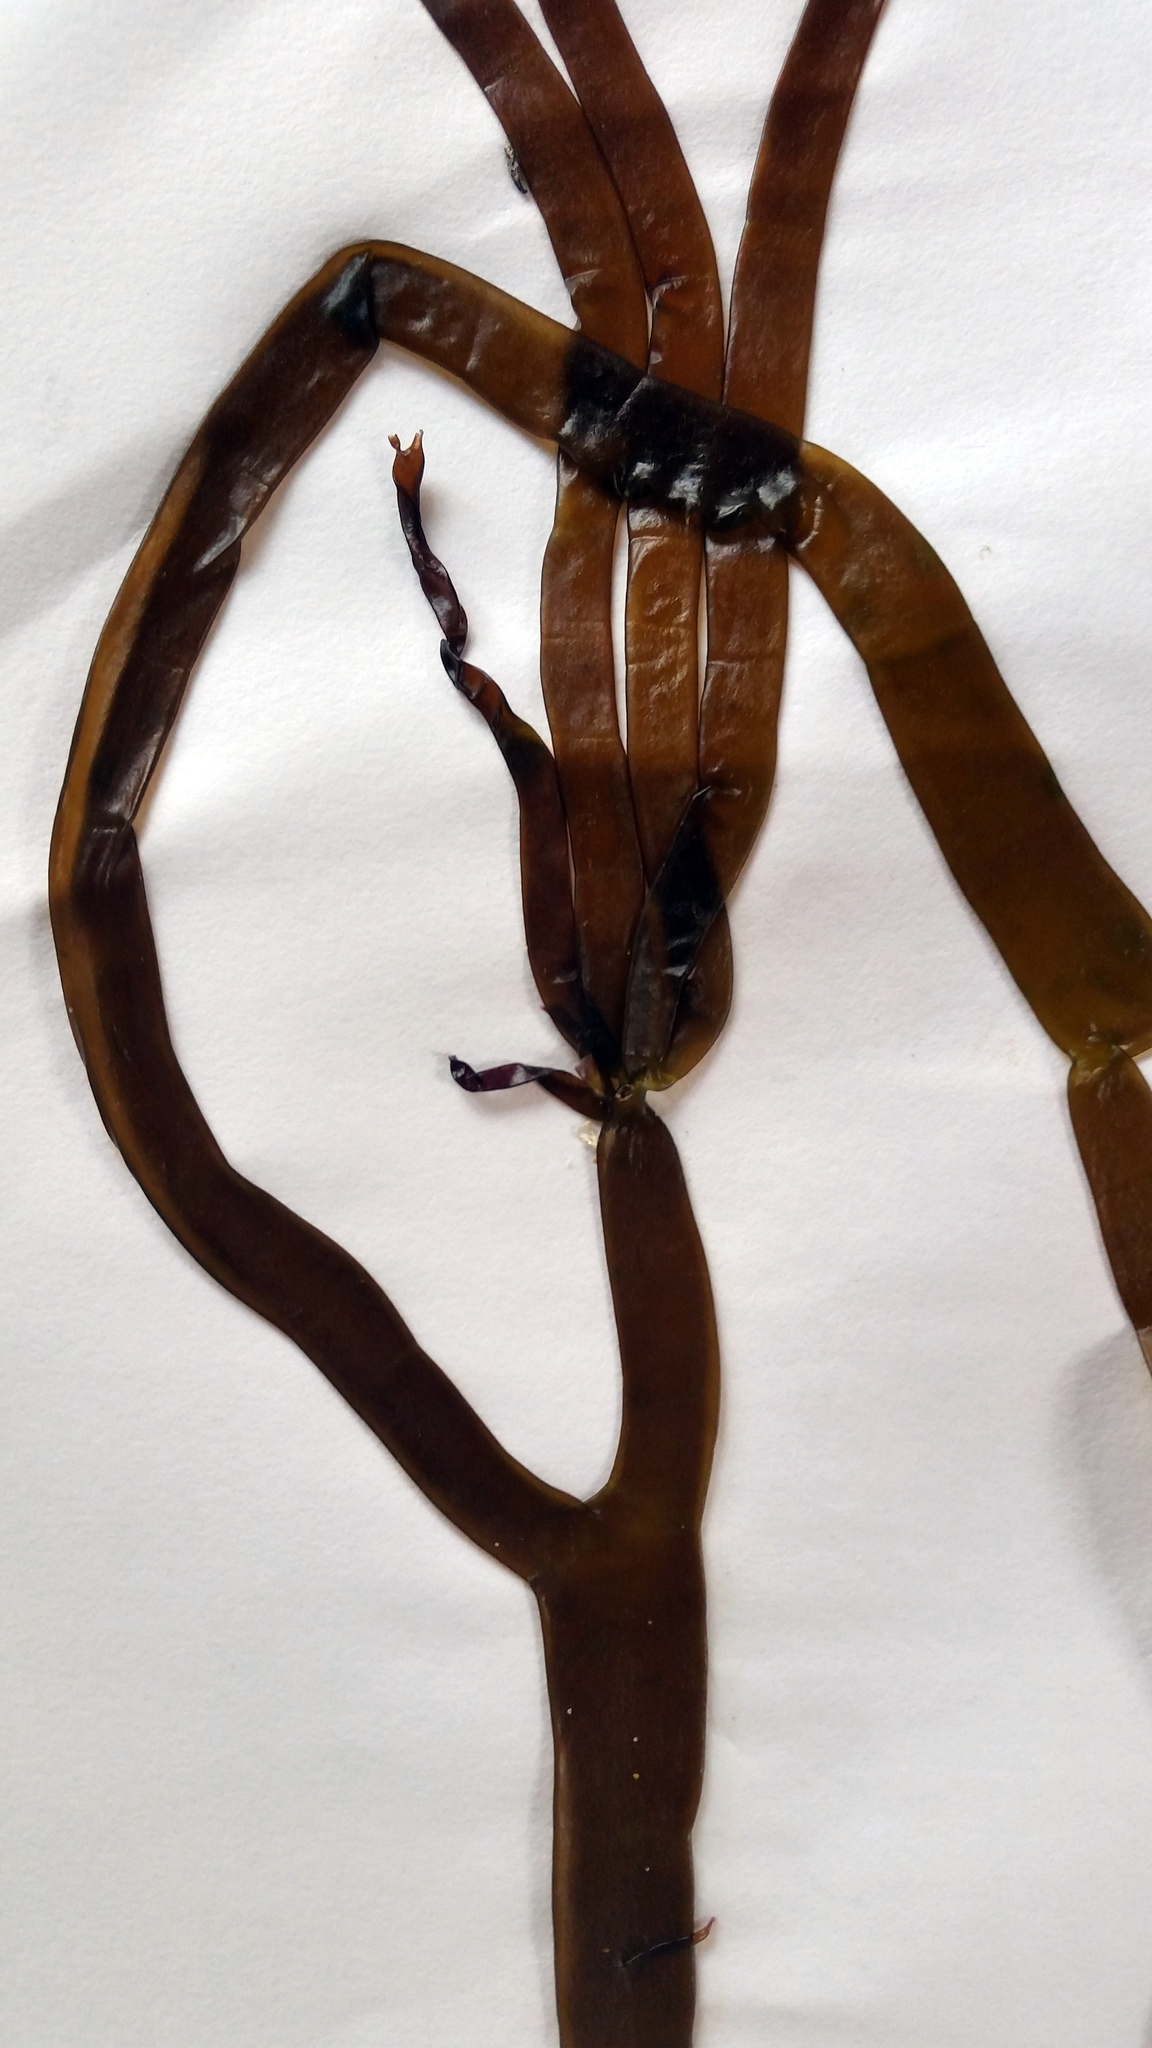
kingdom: Plantae
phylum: Rhodophyta
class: Florideophyceae
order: Halymeniales
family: Halymeniaceae
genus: Glaphyrosiphon
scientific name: Glaphyrosiphon lindaueri
